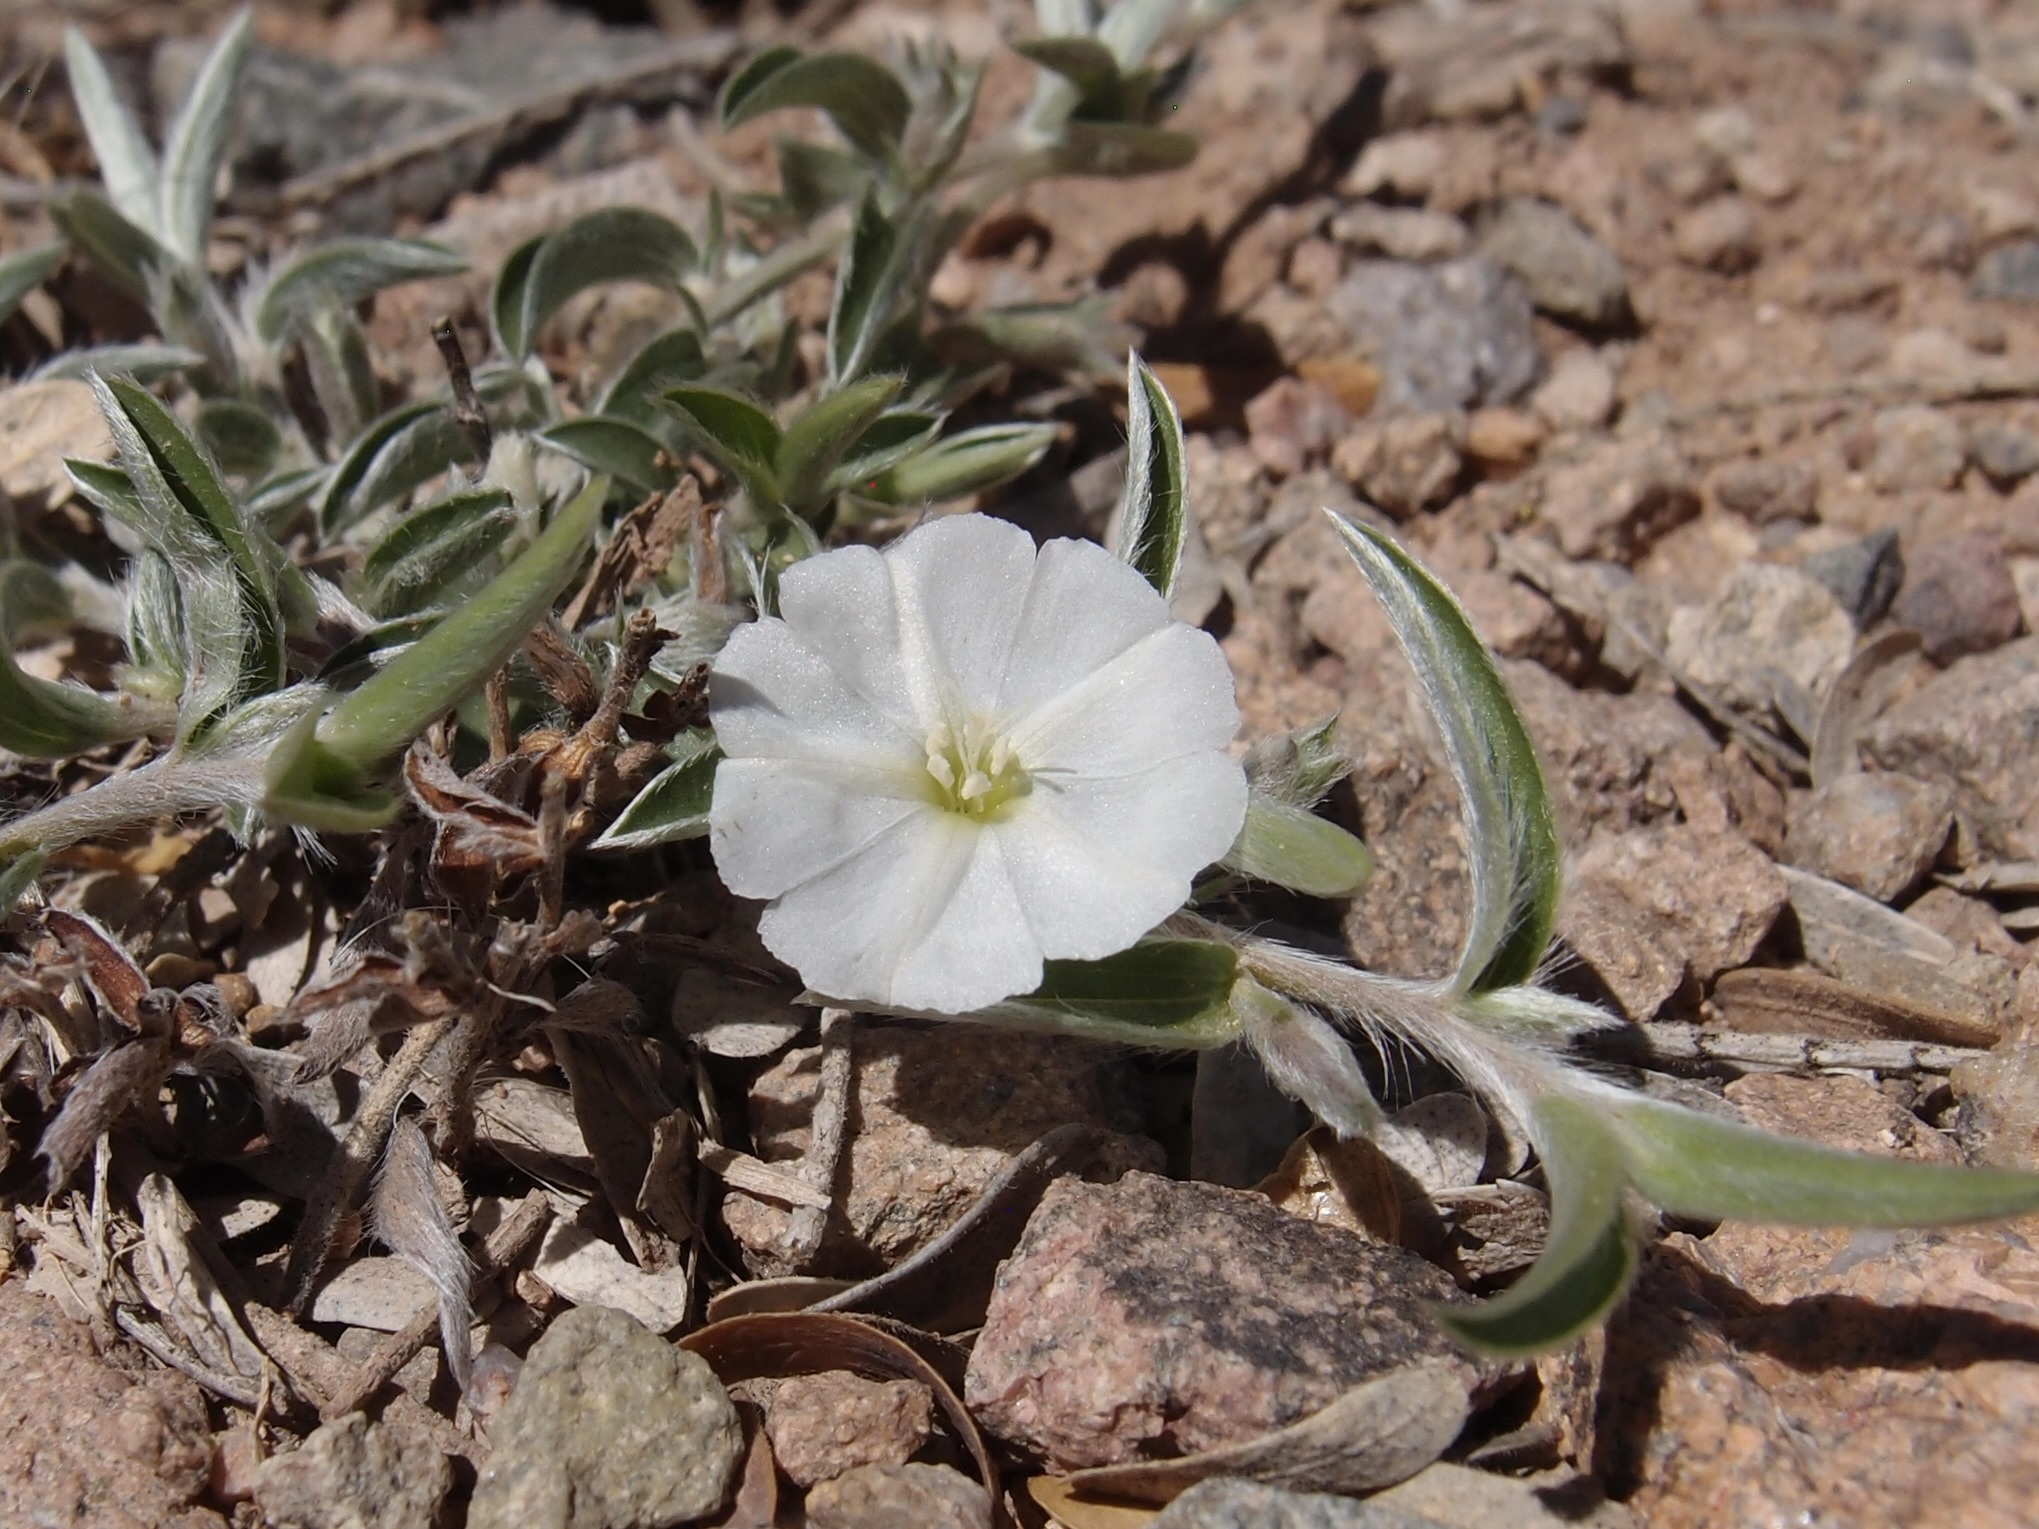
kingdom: Plantae
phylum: Tracheophyta
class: Magnoliopsida
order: Solanales
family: Convolvulaceae
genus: Evolvulus
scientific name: Evolvulus sericeus
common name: Blue dots
